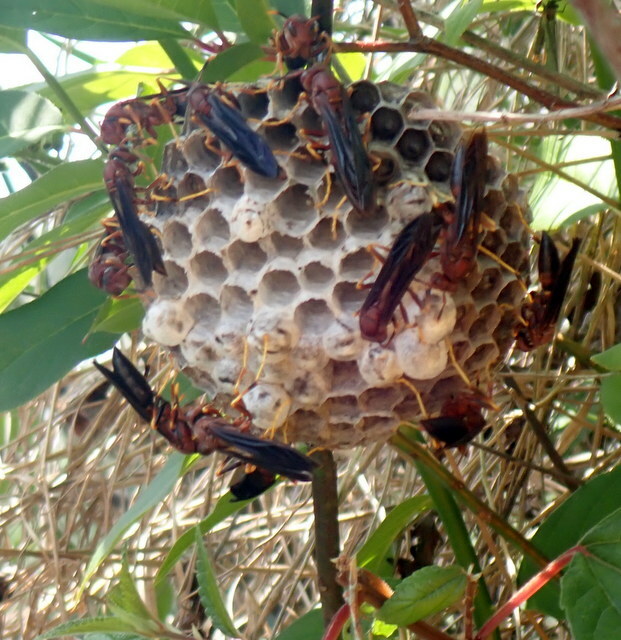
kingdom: Animalia
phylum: Arthropoda
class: Insecta
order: Hymenoptera
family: Eumenidae
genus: Polistes
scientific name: Polistes annularis
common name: Ringed paper wasp
